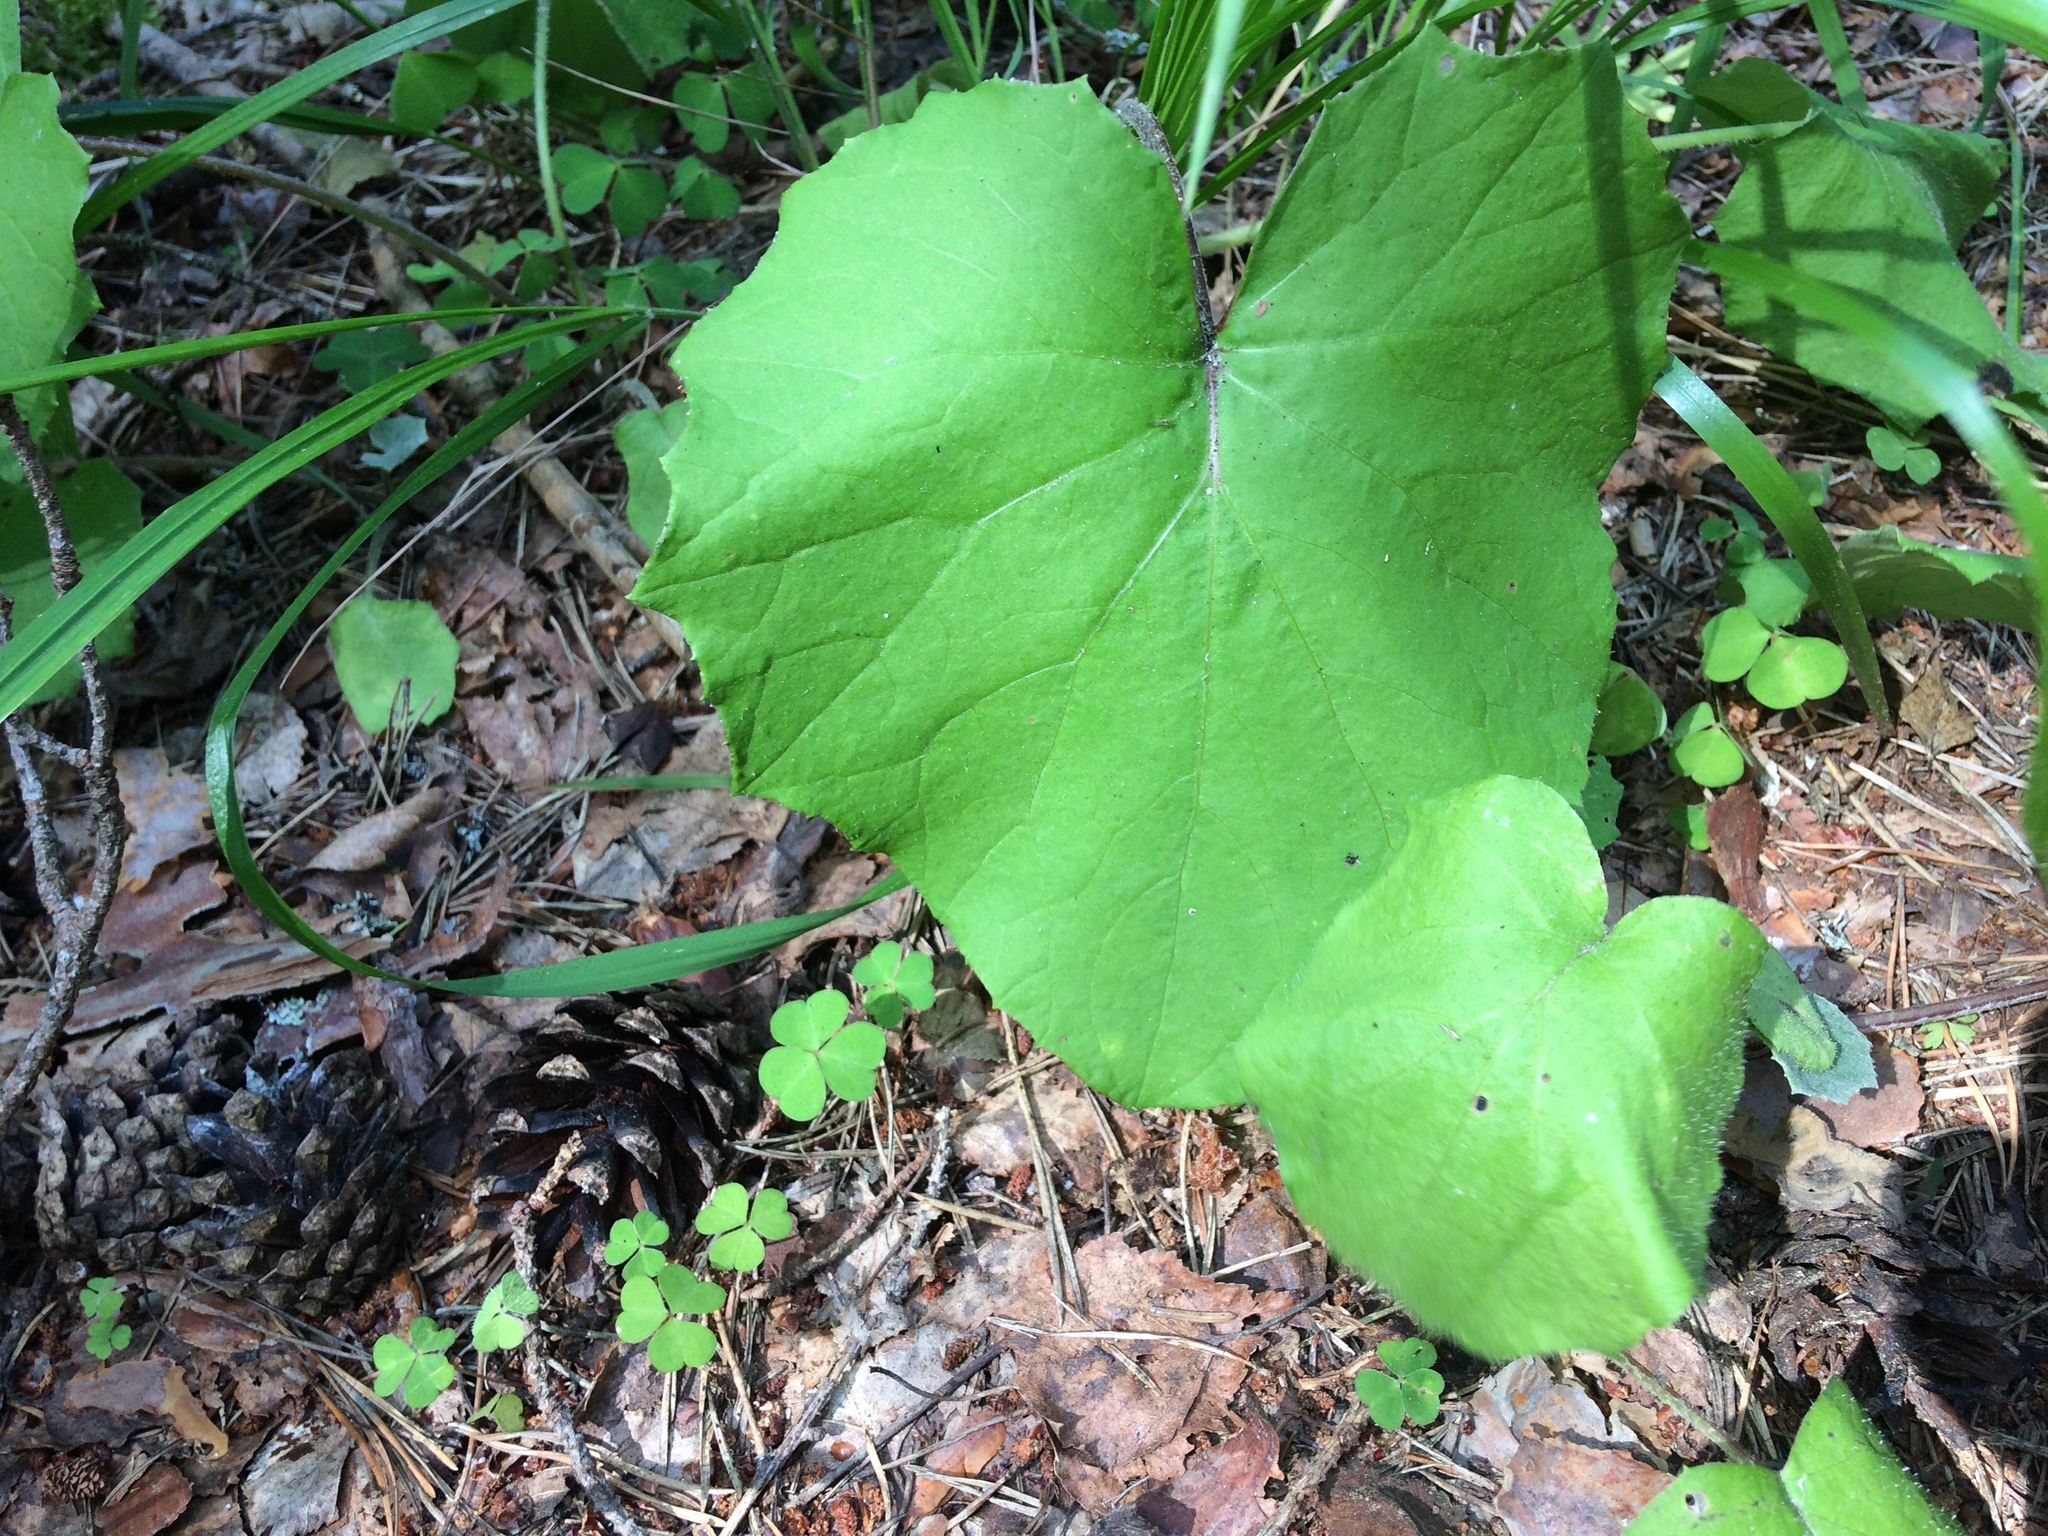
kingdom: Plantae
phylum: Tracheophyta
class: Magnoliopsida
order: Asterales
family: Asteraceae
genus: Tussilago
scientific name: Tussilago farfara
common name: Coltsfoot
